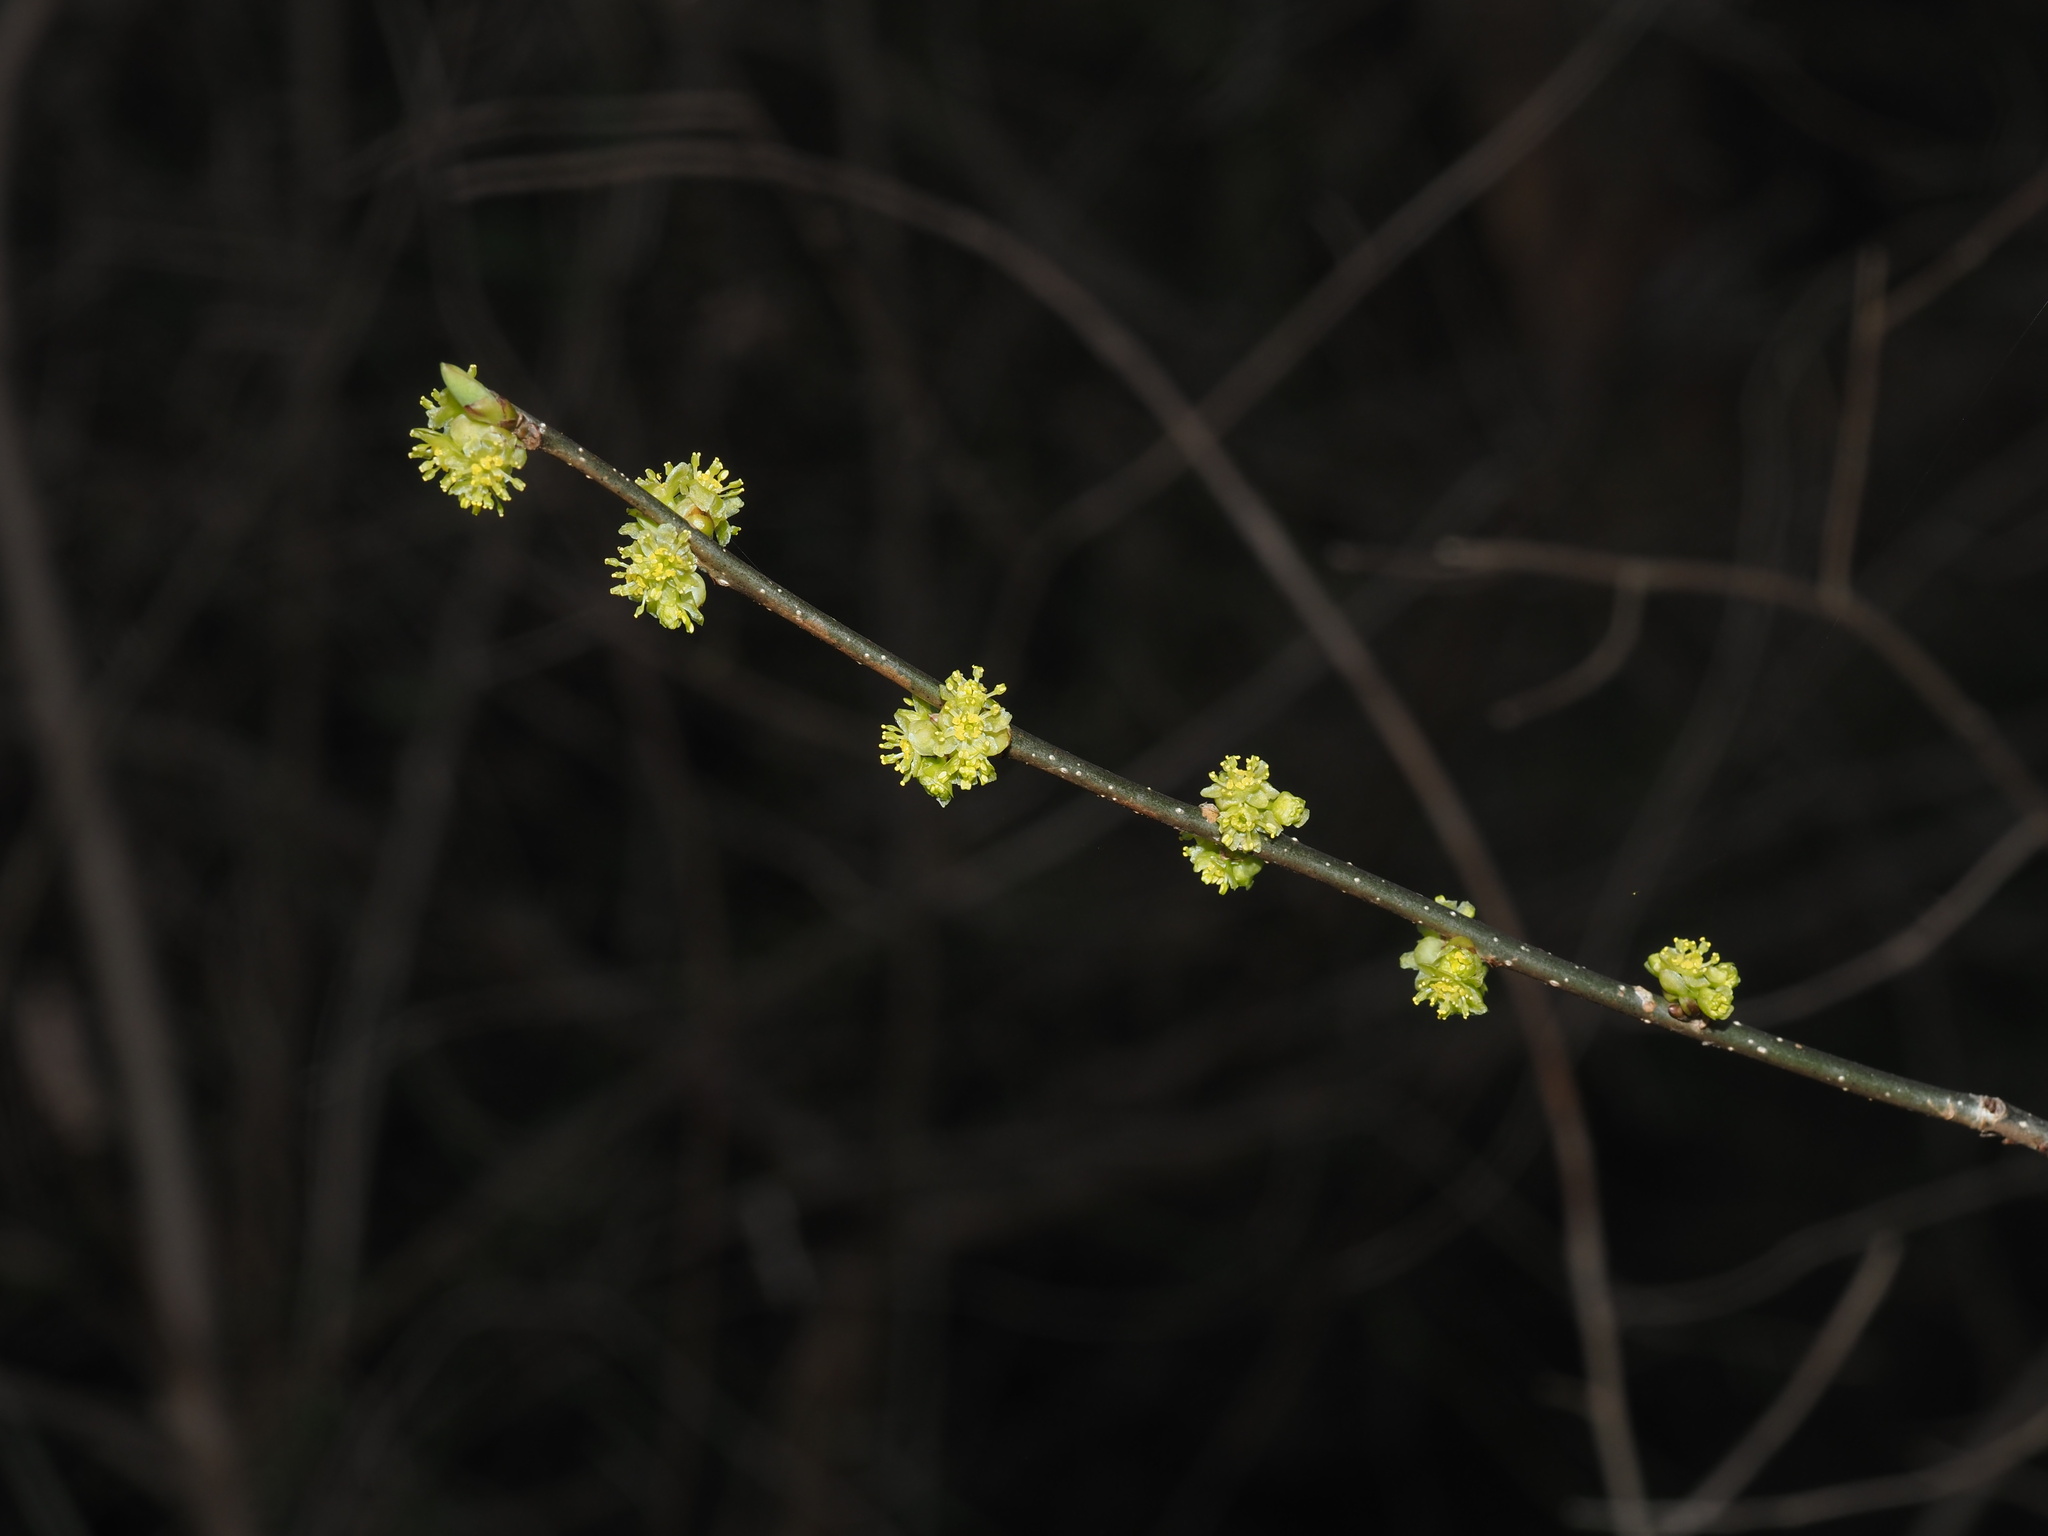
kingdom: Plantae
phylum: Tracheophyta
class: Magnoliopsida
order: Laurales
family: Lauraceae
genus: Lindera
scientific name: Lindera benzoin
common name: Spicebush
